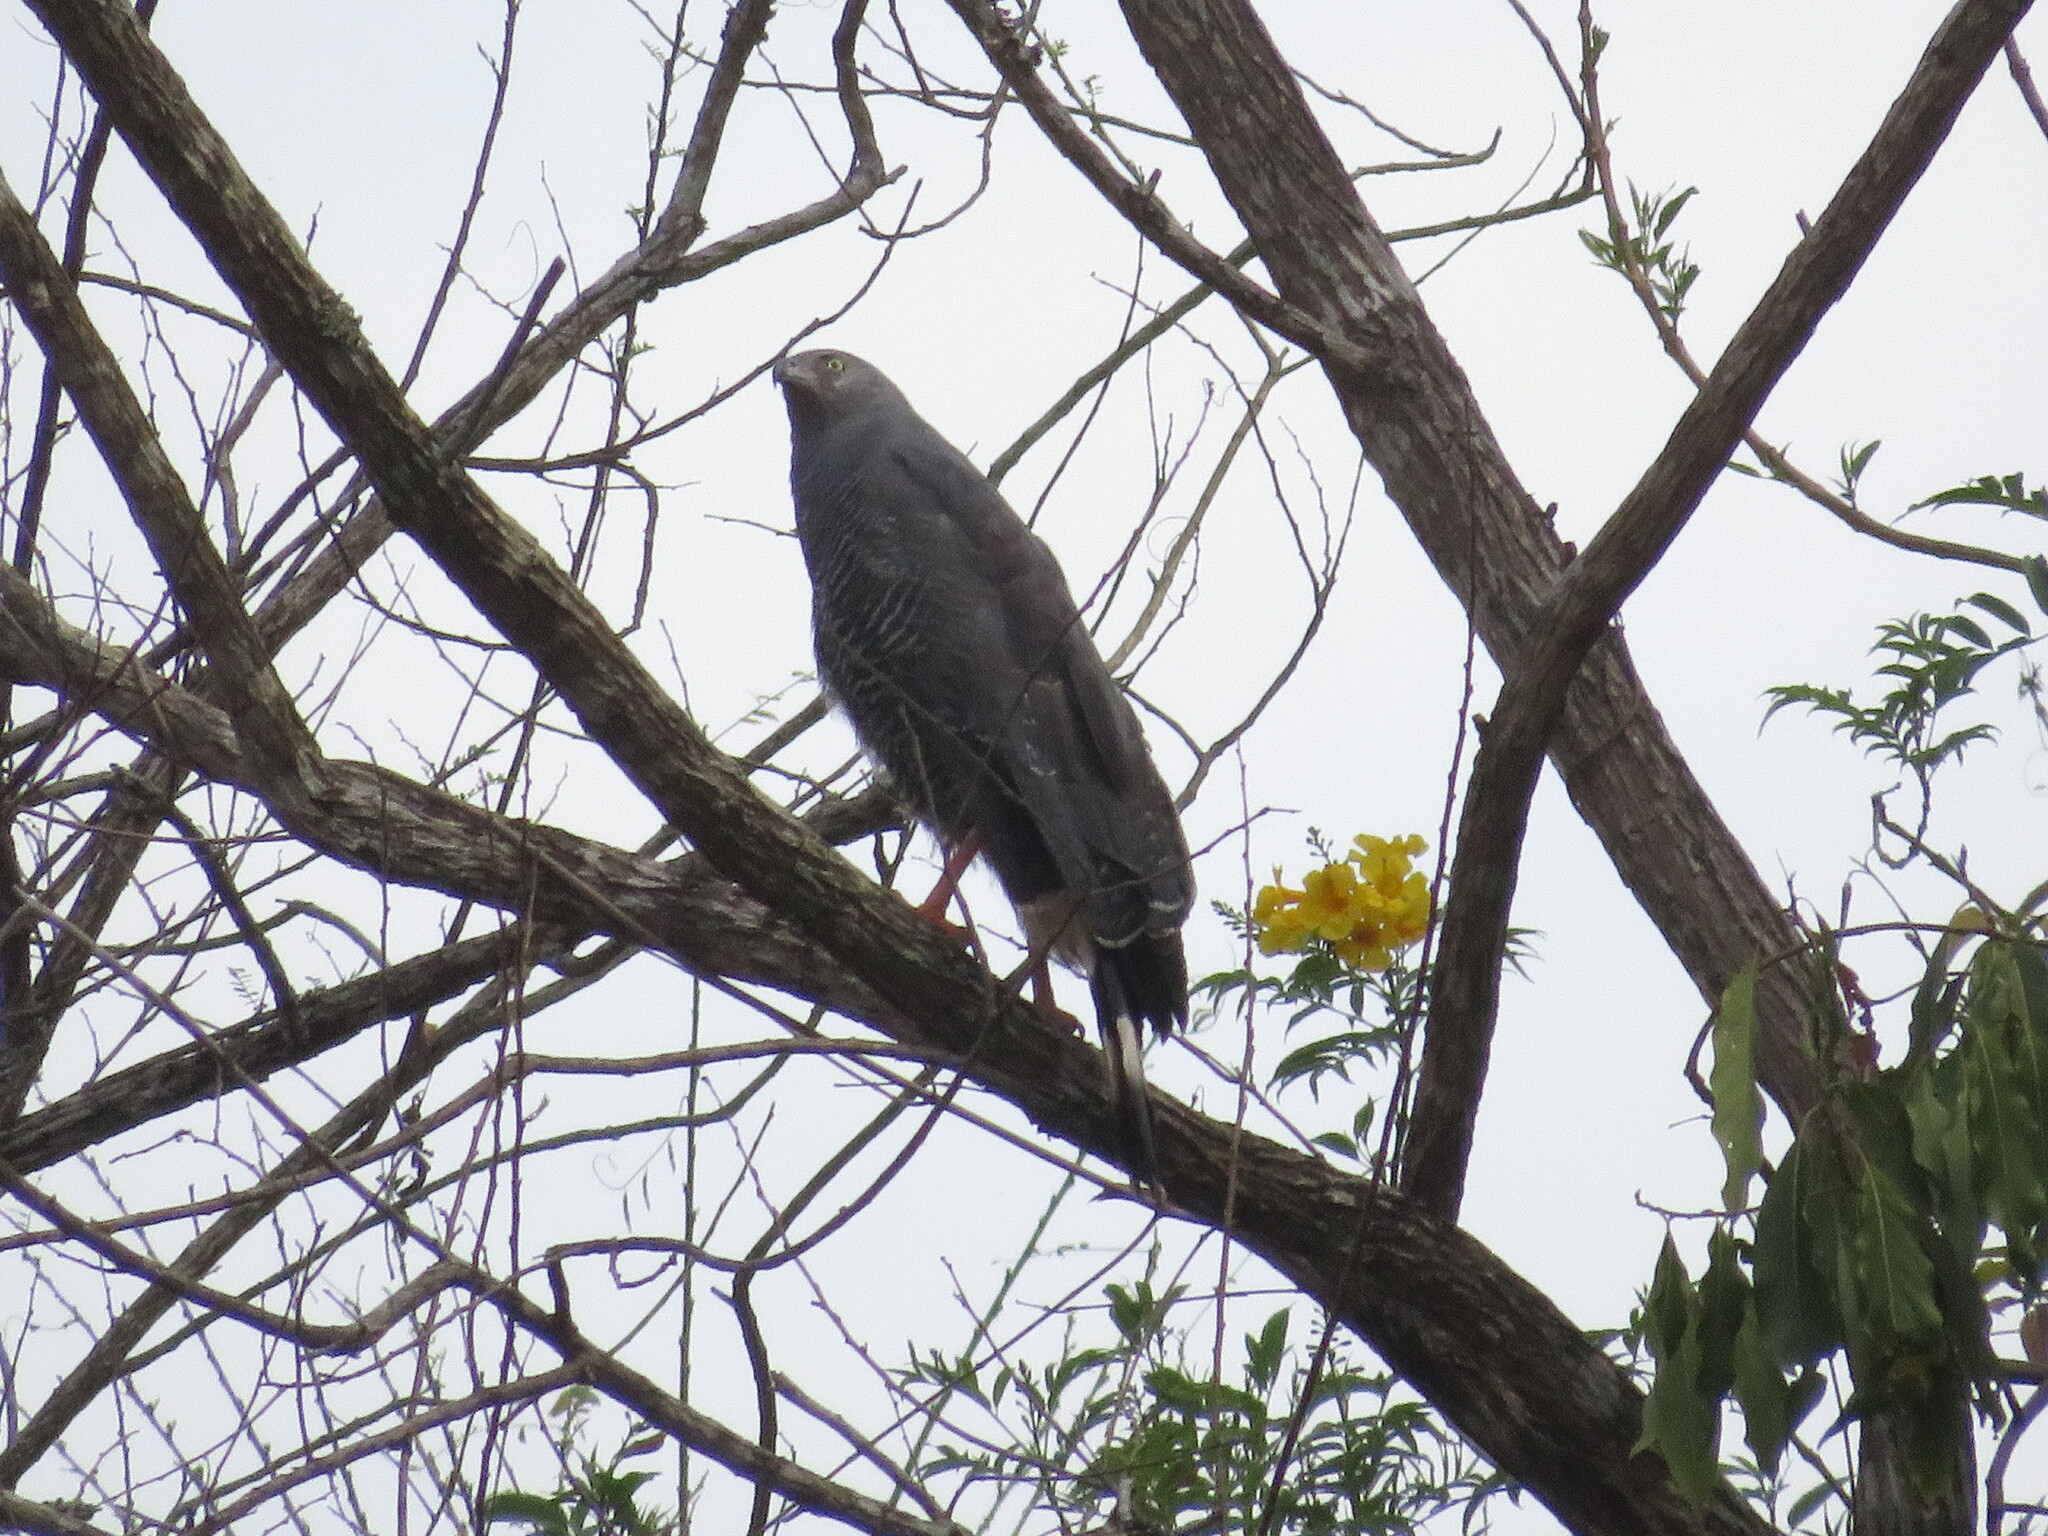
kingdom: Animalia
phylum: Chordata
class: Aves
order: Accipitriformes
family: Accipitridae
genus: Geranospiza
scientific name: Geranospiza caerulescens
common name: Crane hawk
